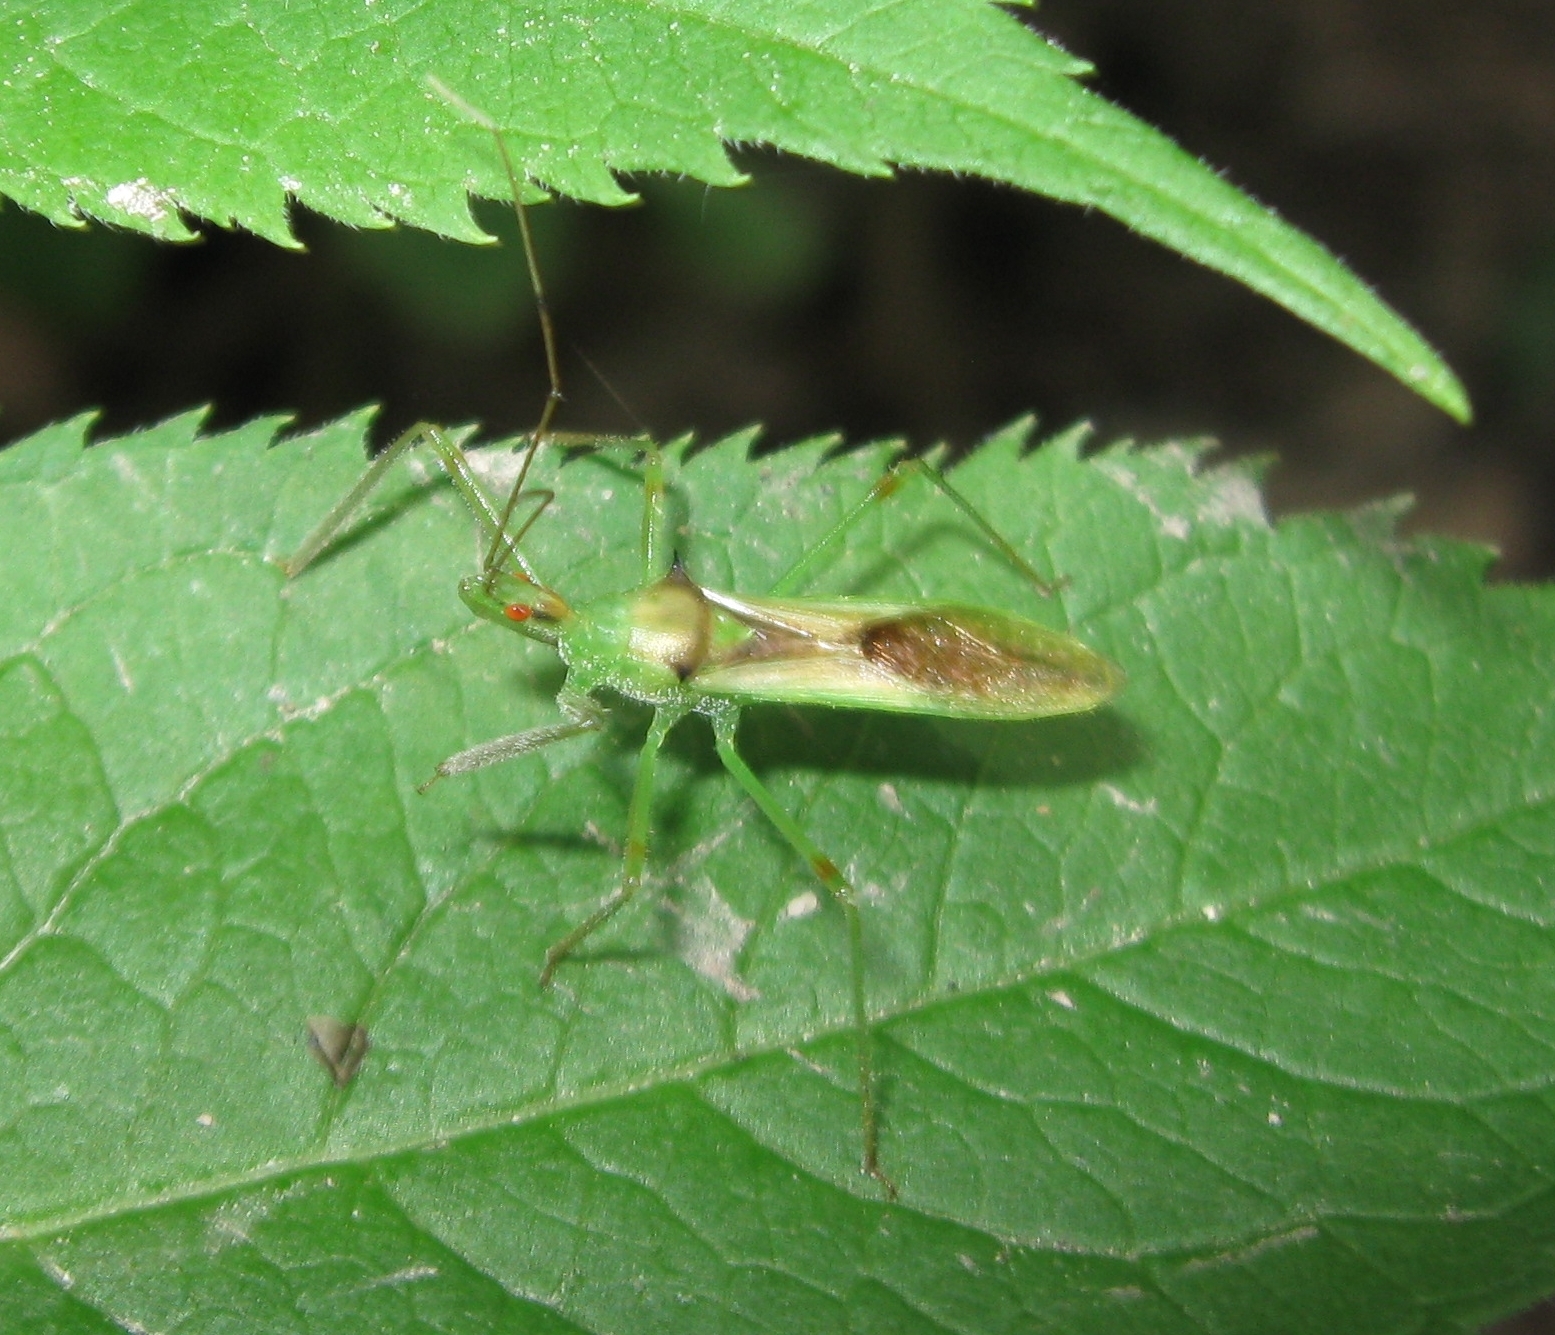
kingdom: Animalia
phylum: Arthropoda
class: Insecta
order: Hemiptera
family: Reduviidae
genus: Zelus
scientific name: Zelus luridus
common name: Pale green assassin bug
